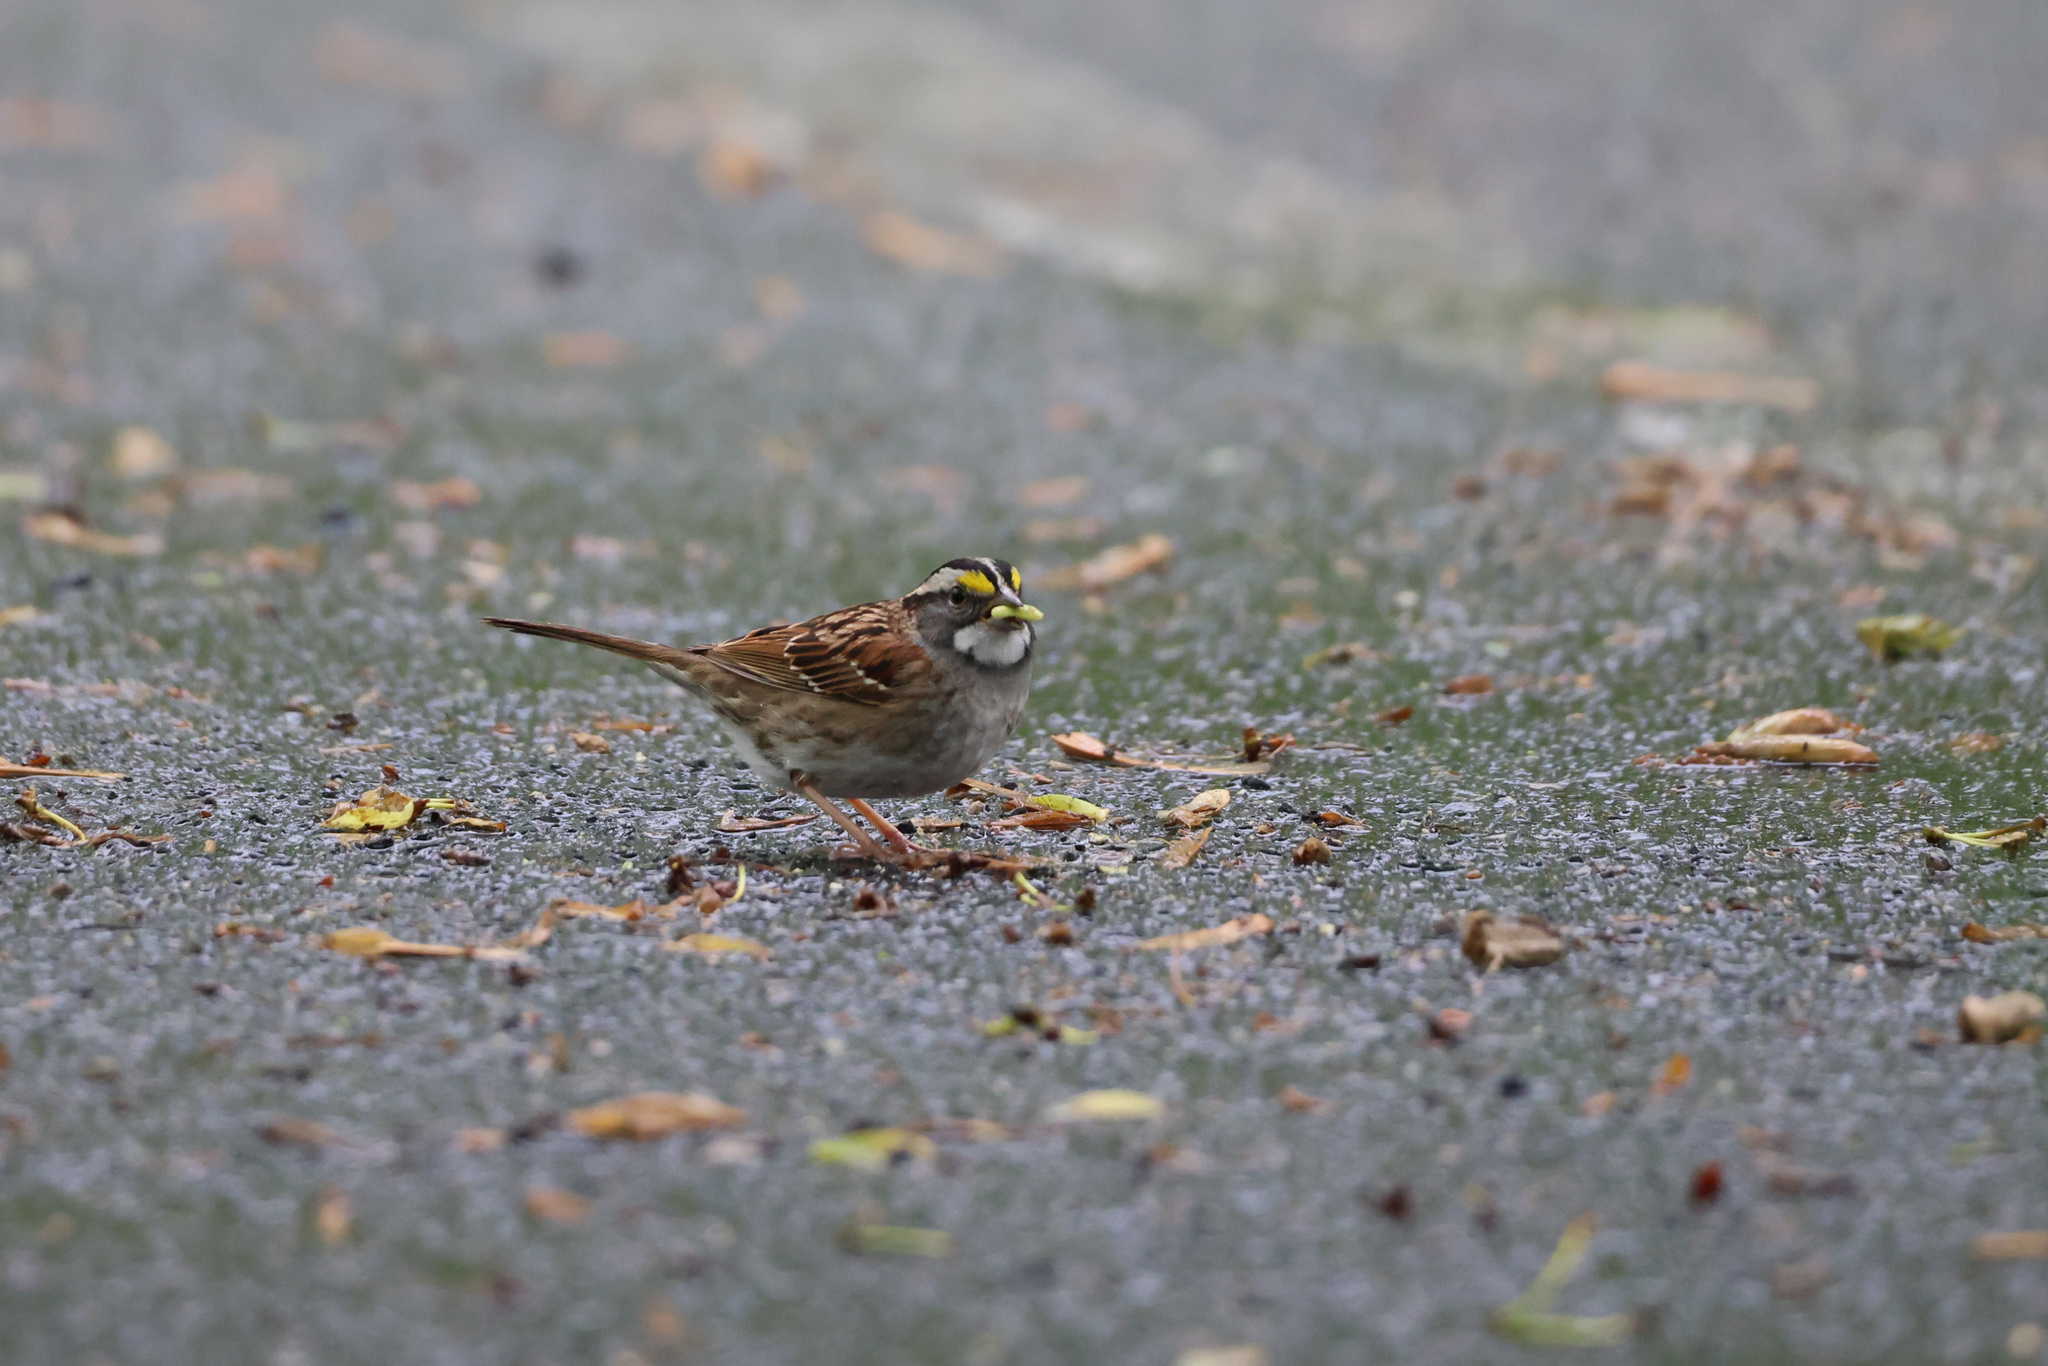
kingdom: Animalia
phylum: Chordata
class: Aves
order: Passeriformes
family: Passerellidae
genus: Zonotrichia
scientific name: Zonotrichia albicollis
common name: White-throated sparrow
